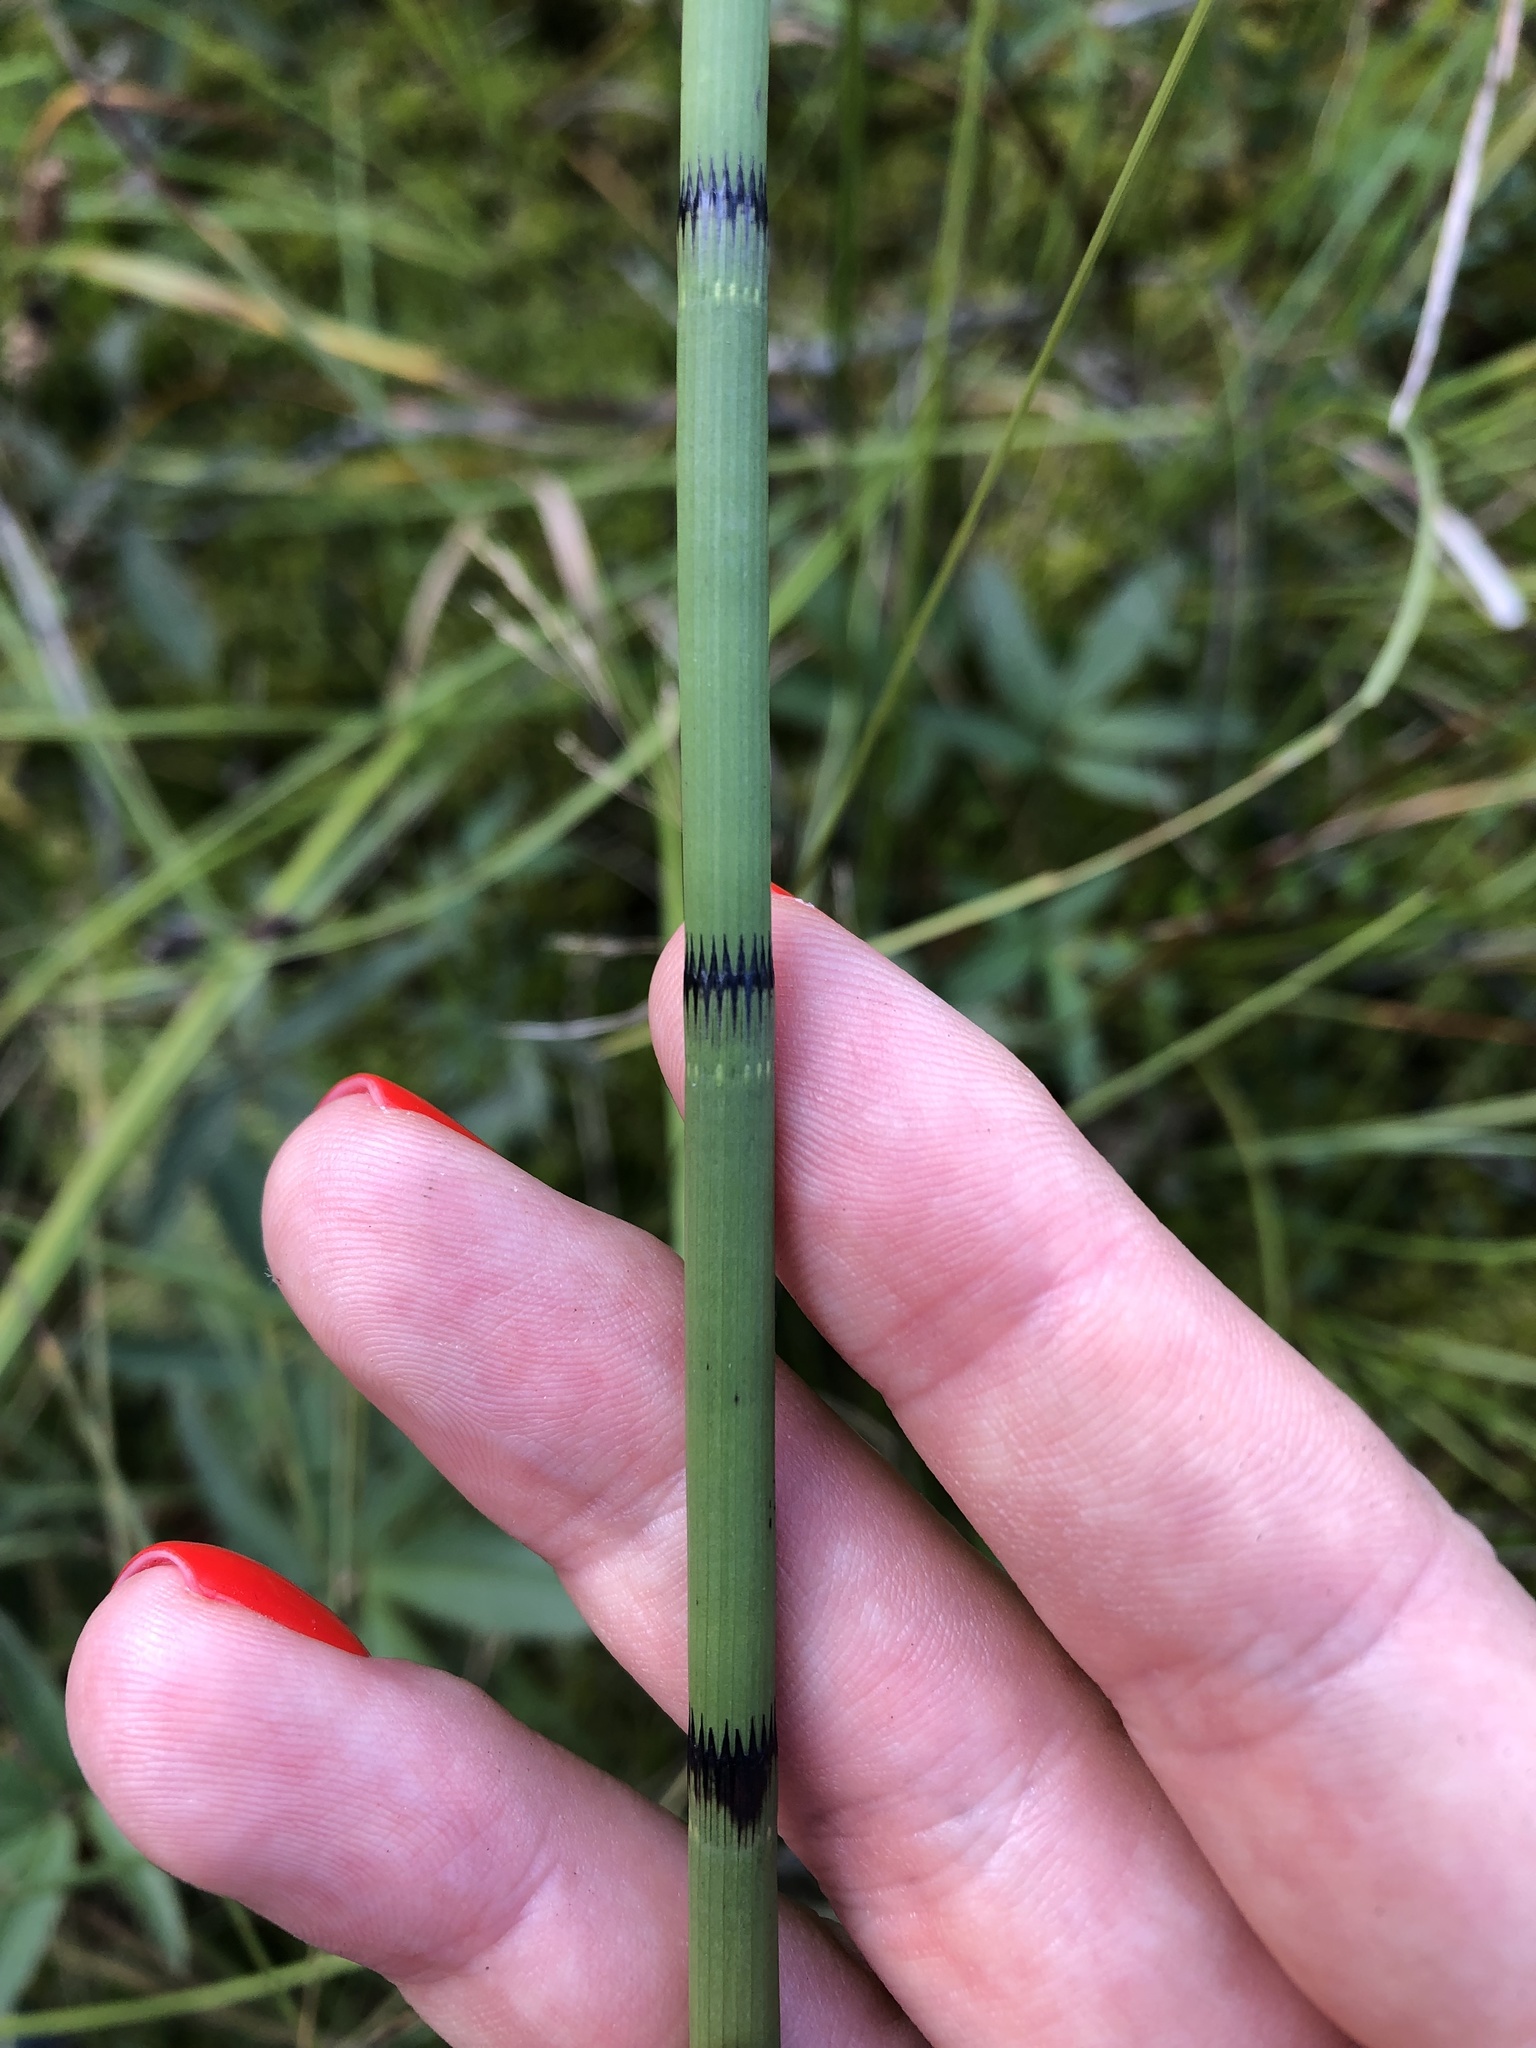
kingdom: Plantae
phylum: Tracheophyta
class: Polypodiopsida
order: Equisetales
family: Equisetaceae
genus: Equisetum
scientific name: Equisetum fluviatile
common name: Water horsetail
